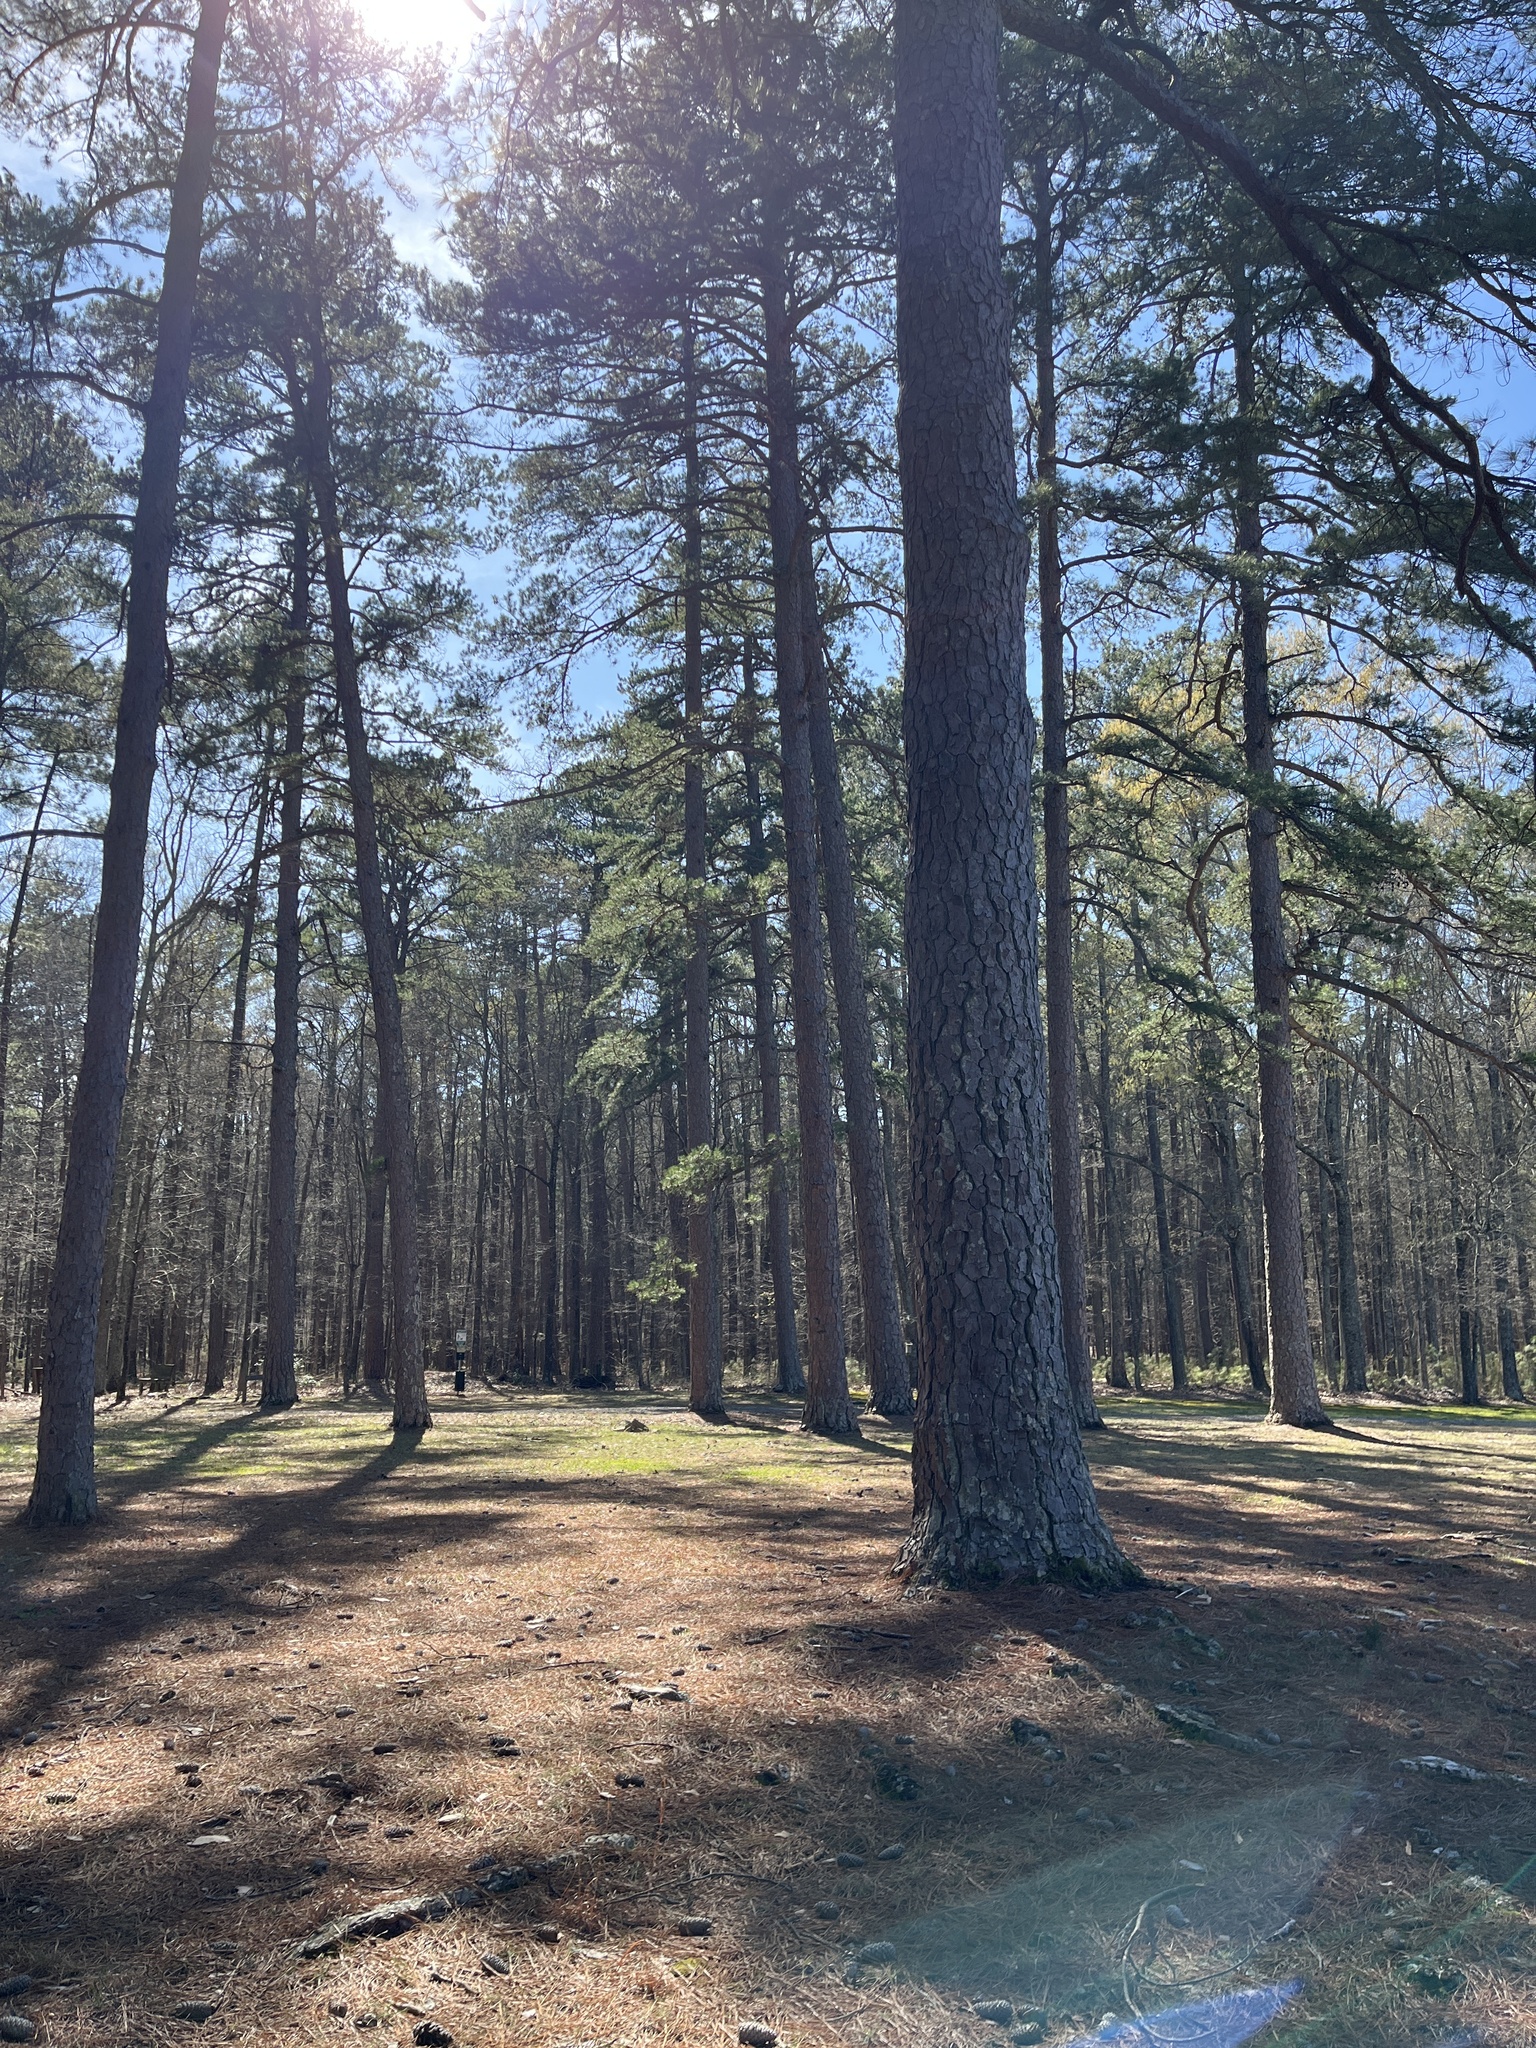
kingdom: Plantae
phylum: Tracheophyta
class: Pinopsida
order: Pinales
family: Pinaceae
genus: Pinus
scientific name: Pinus taeda
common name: Loblolly pine
